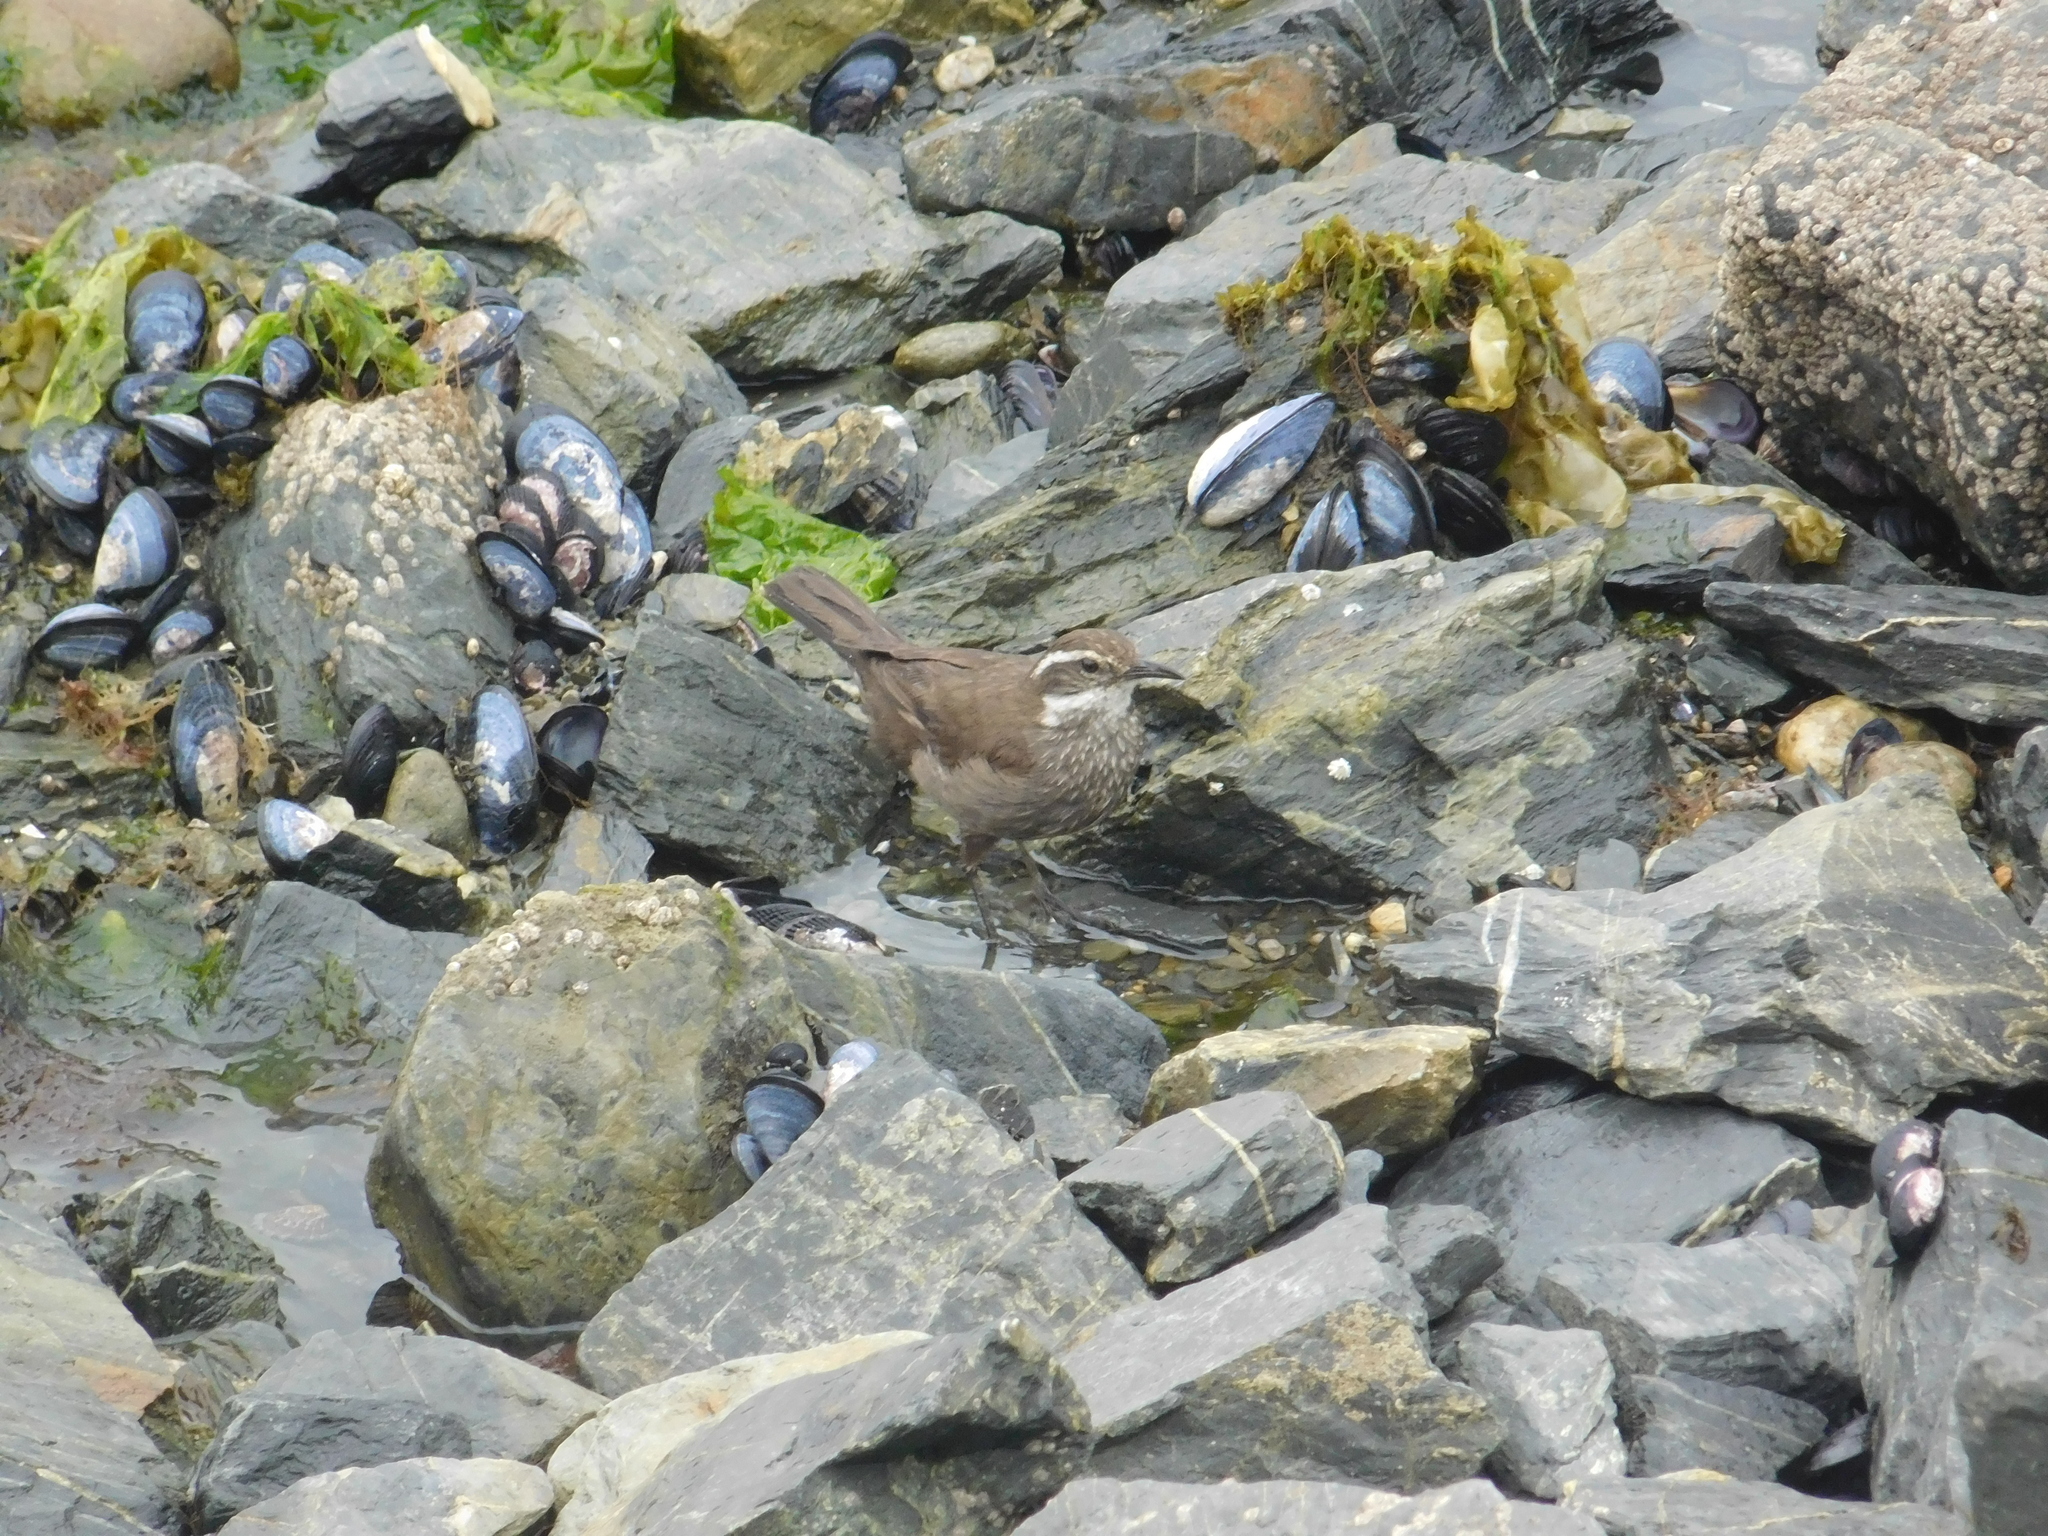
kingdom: Animalia
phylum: Chordata
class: Aves
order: Passeriformes
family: Furnariidae
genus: Cinclodes
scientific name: Cinclodes patagonicus
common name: Dark-bellied cinclodes
